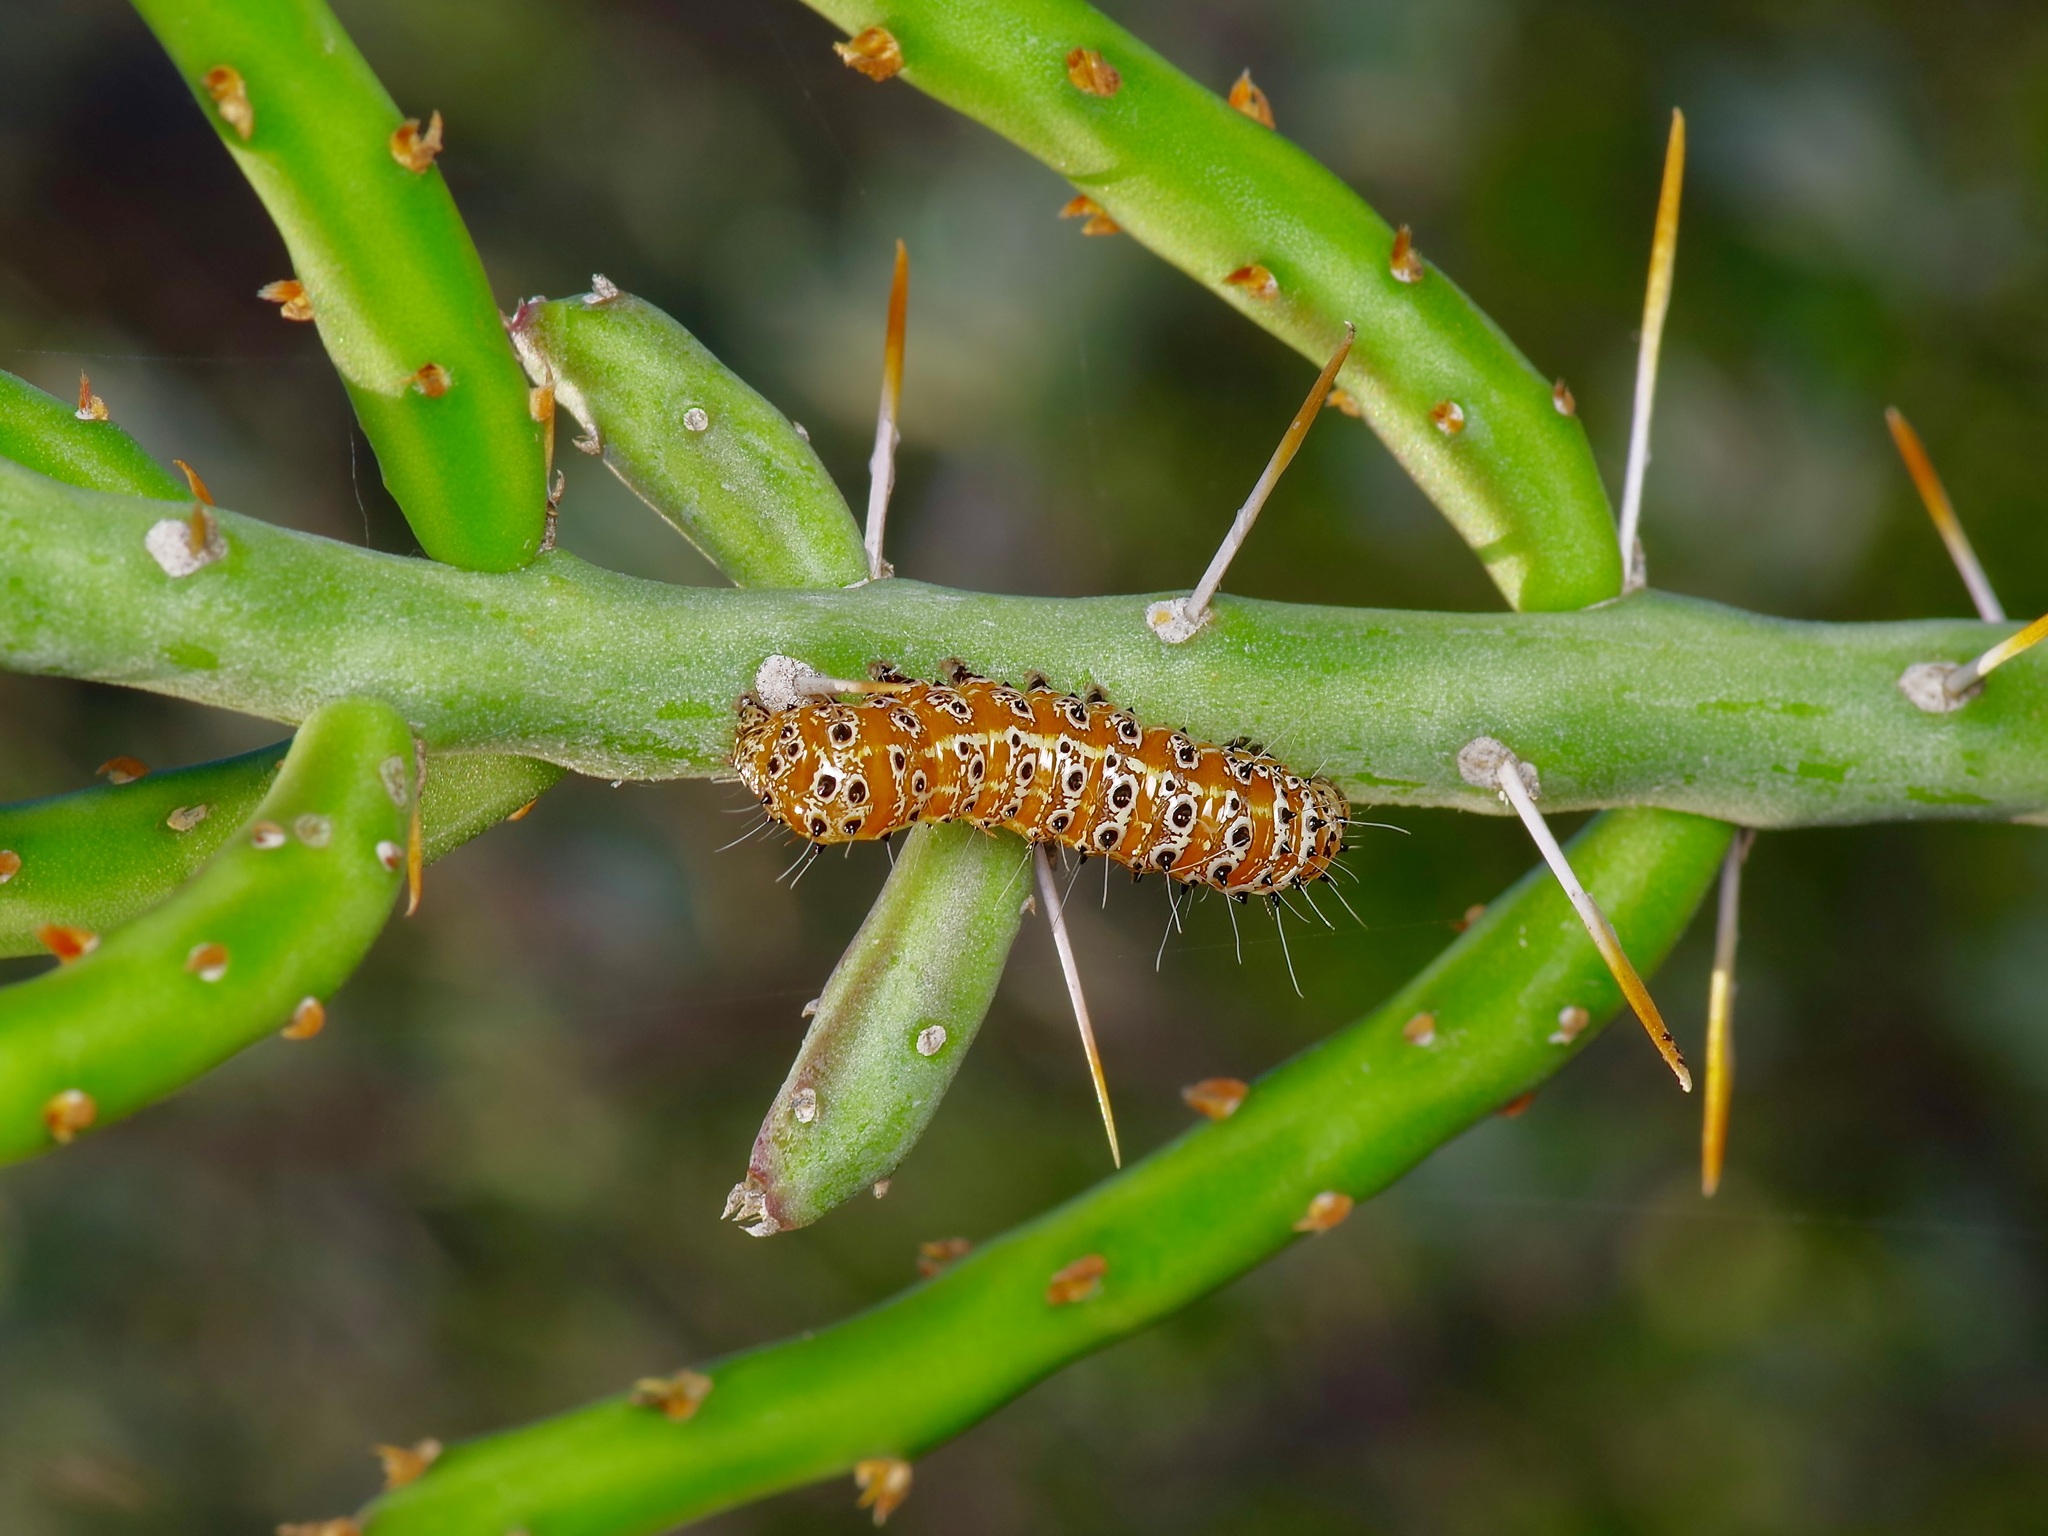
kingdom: Animalia
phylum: Arthropoda
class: Insecta
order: Lepidoptera
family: Noctuidae
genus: Euscirrhopterus
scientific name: Euscirrhopterus cosyra
